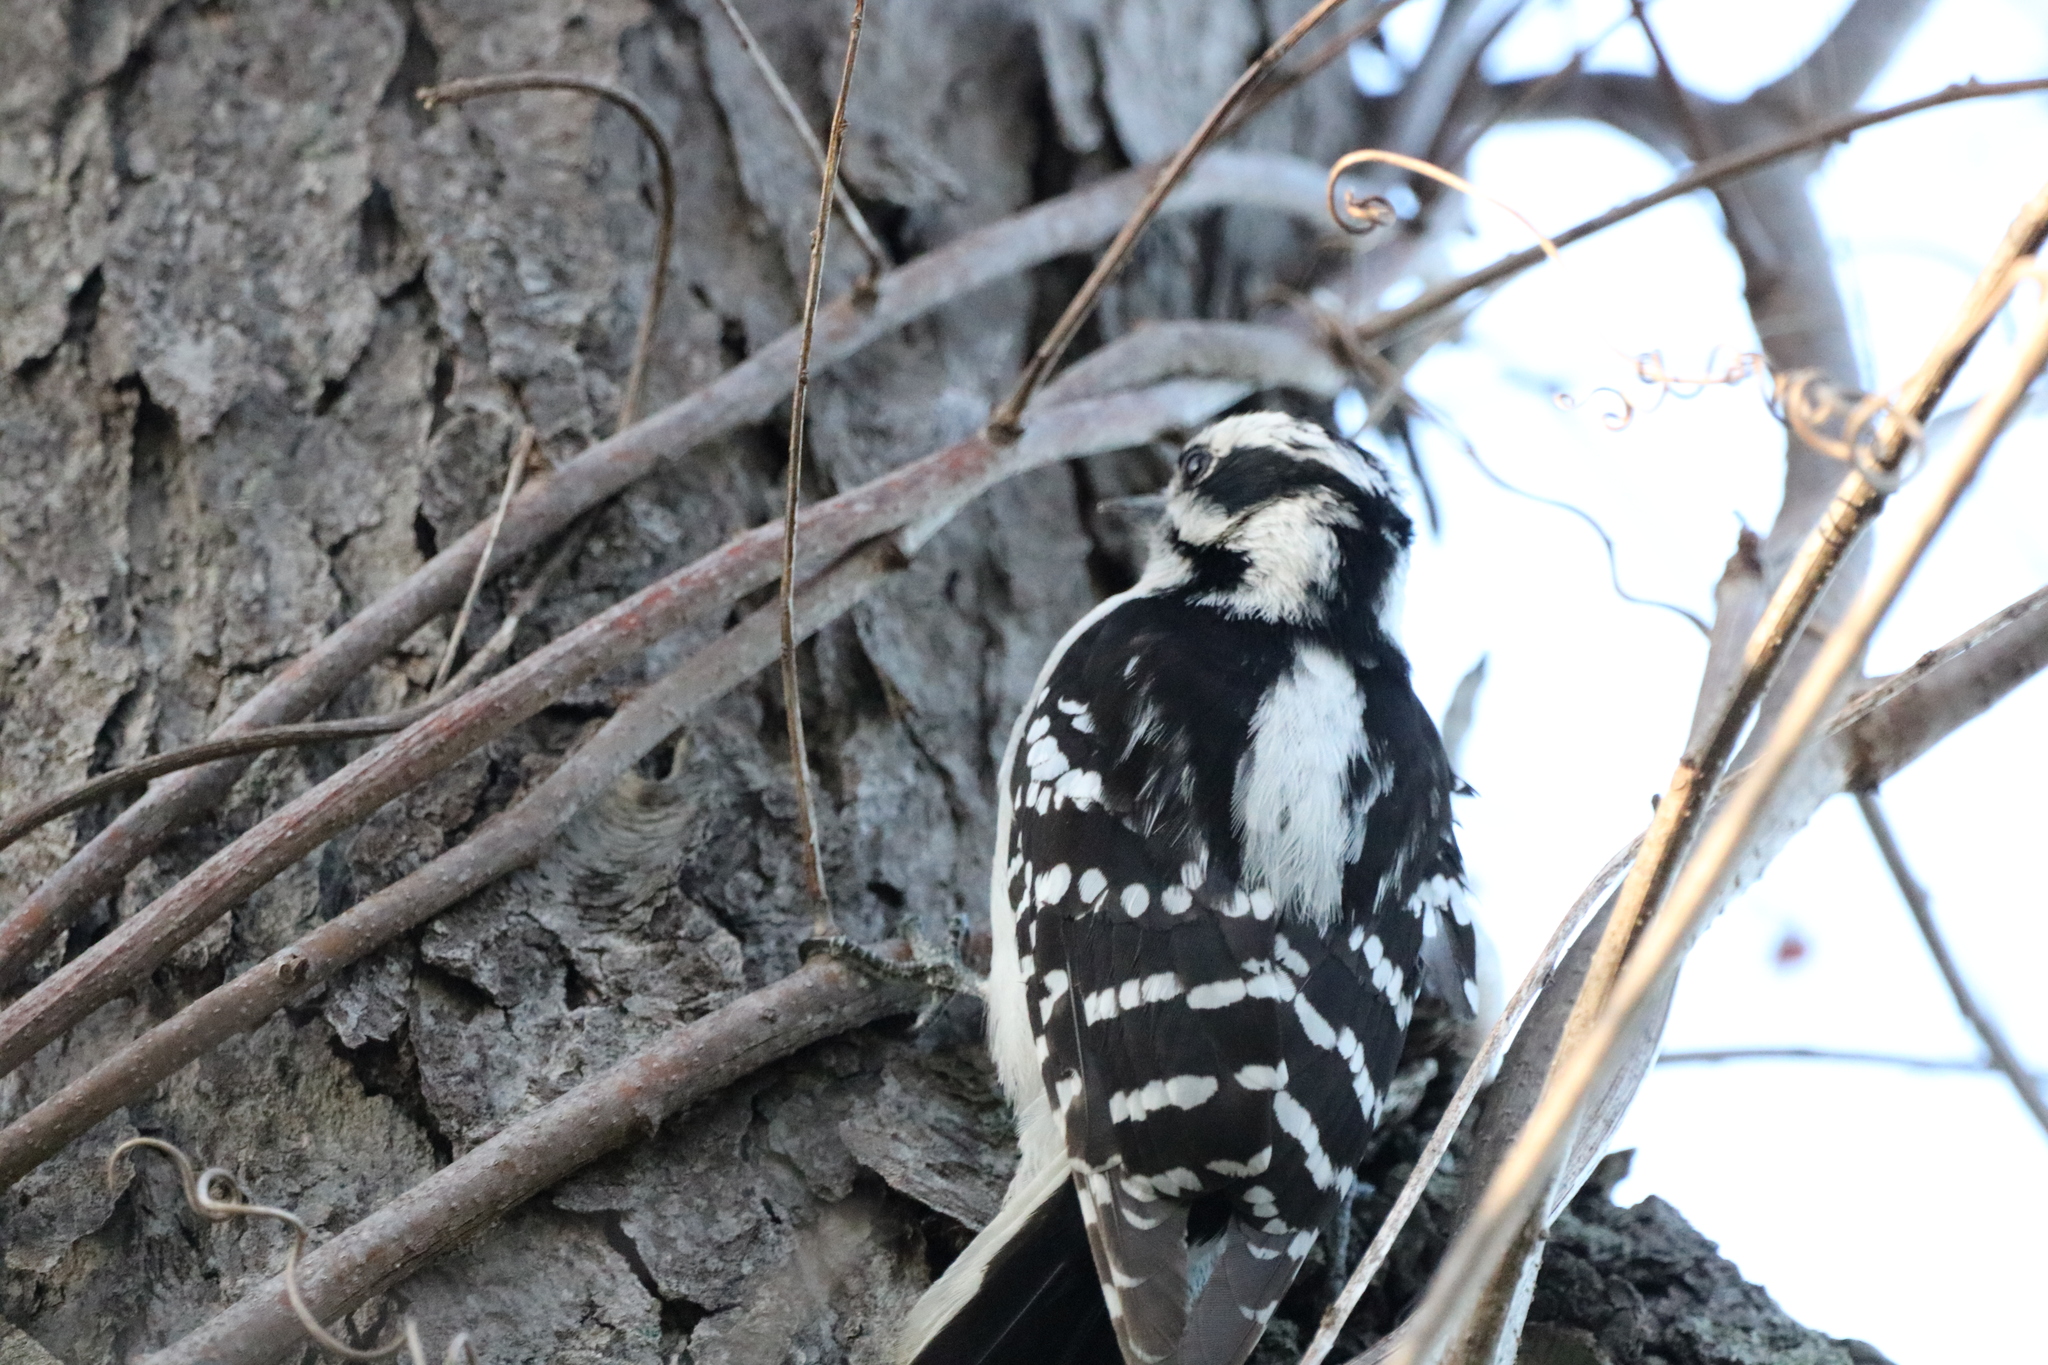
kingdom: Animalia
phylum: Chordata
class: Aves
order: Piciformes
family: Picidae
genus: Dryobates
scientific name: Dryobates pubescens
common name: Downy woodpecker
